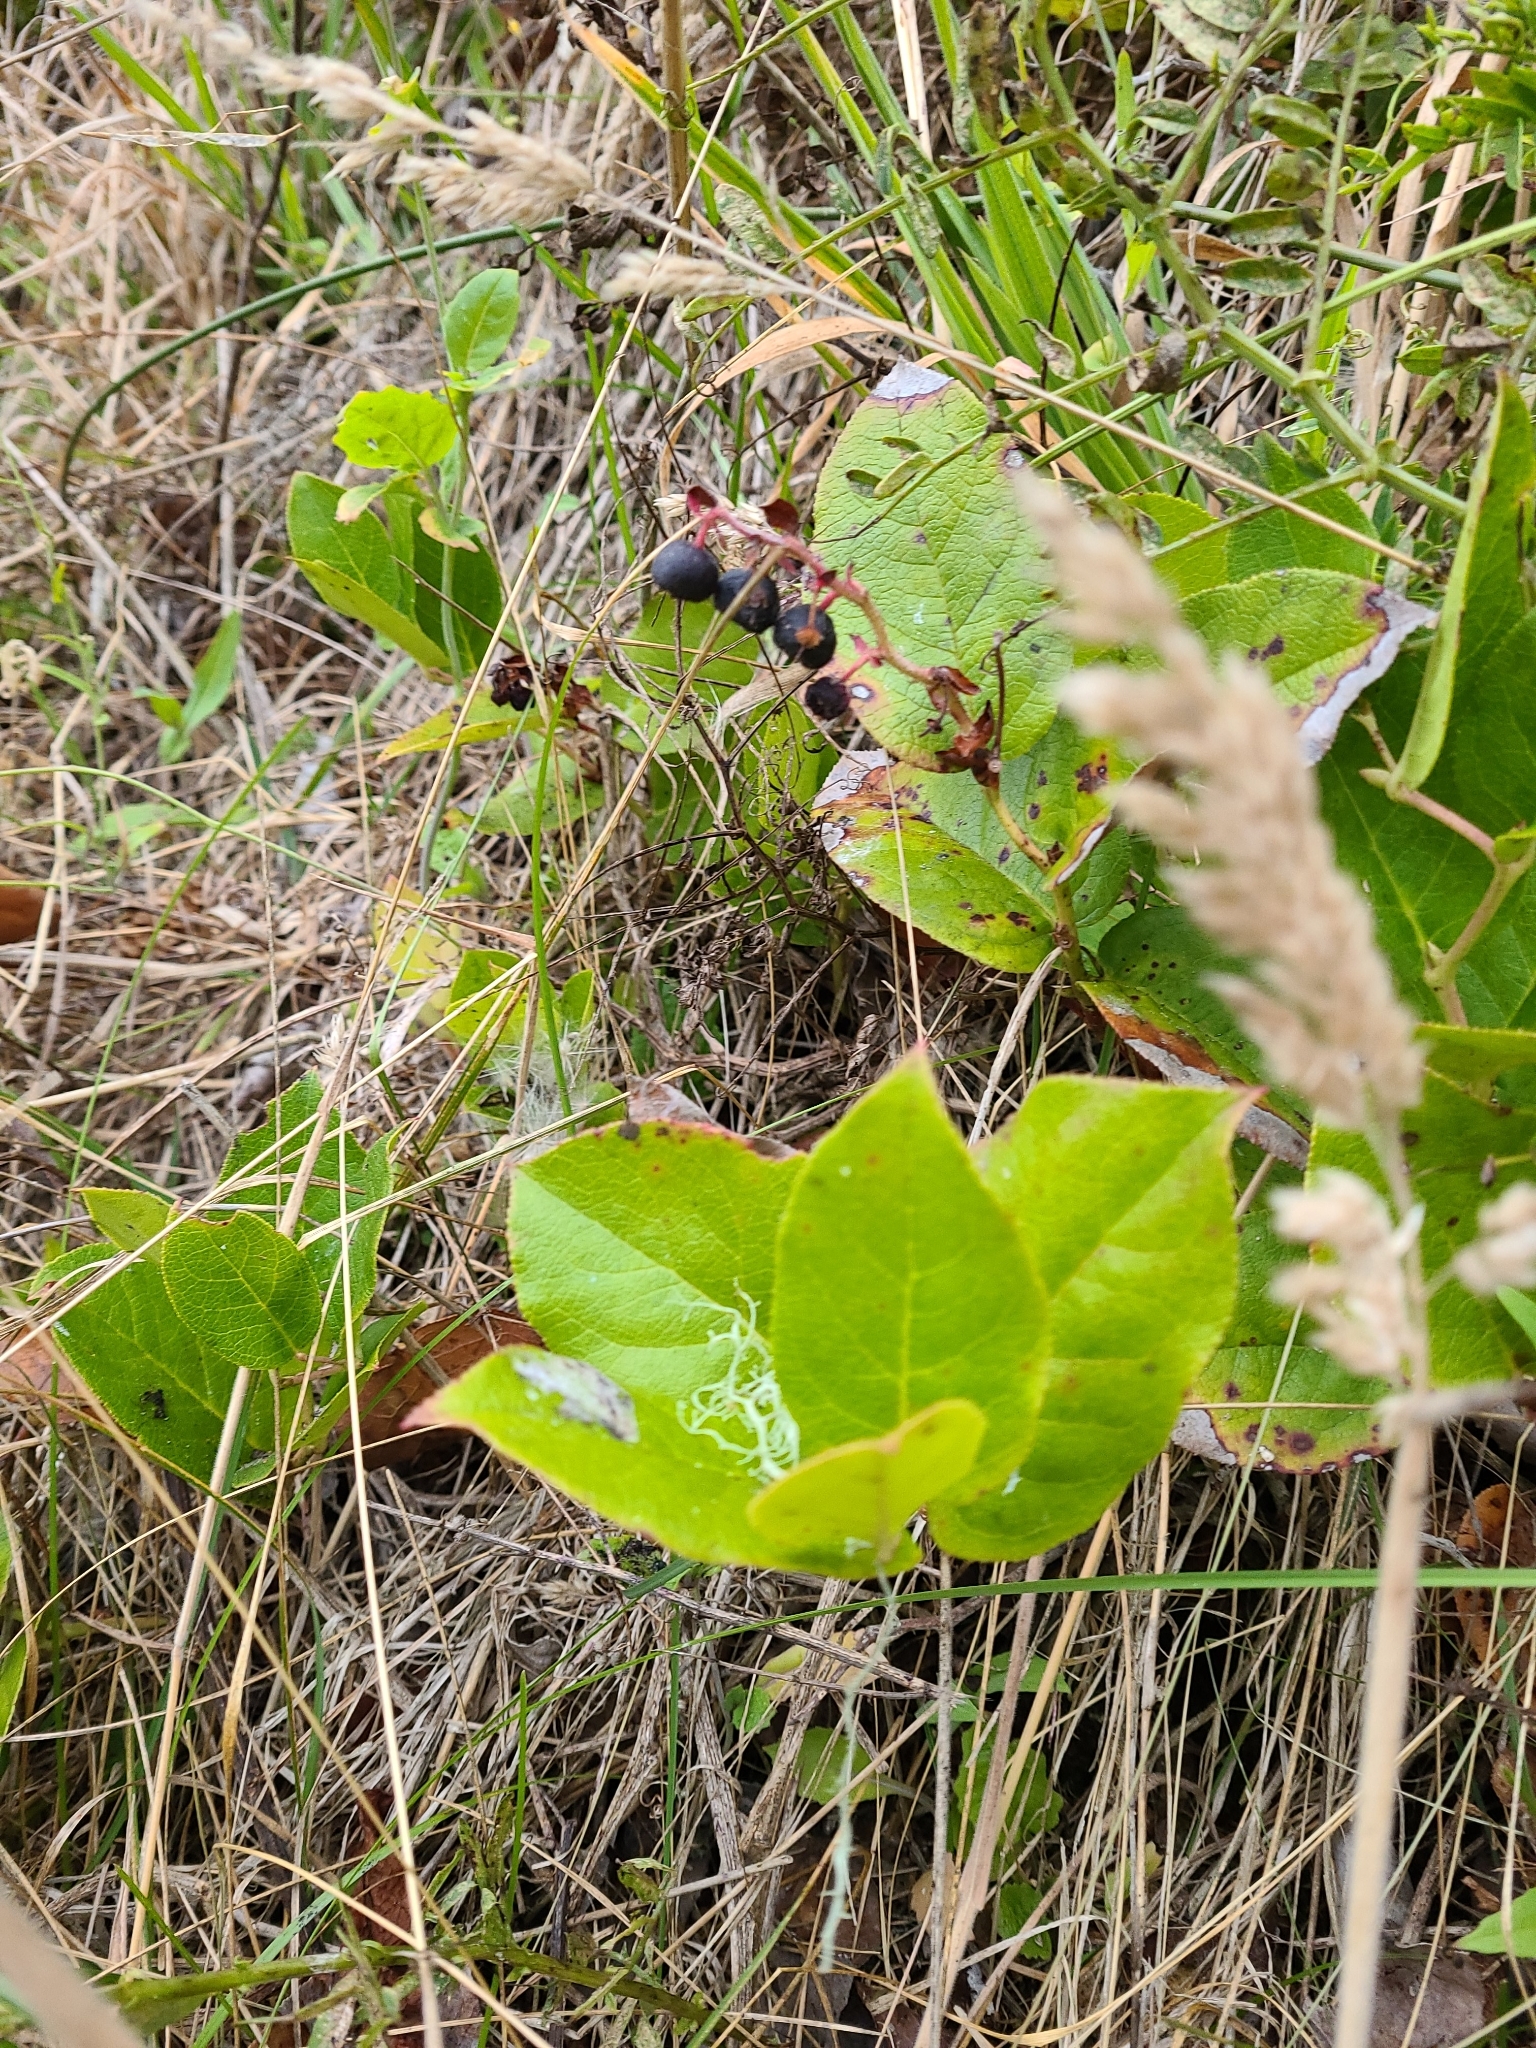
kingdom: Plantae
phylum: Tracheophyta
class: Magnoliopsida
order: Ericales
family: Ericaceae
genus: Gaultheria
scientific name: Gaultheria shallon
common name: Shallon
